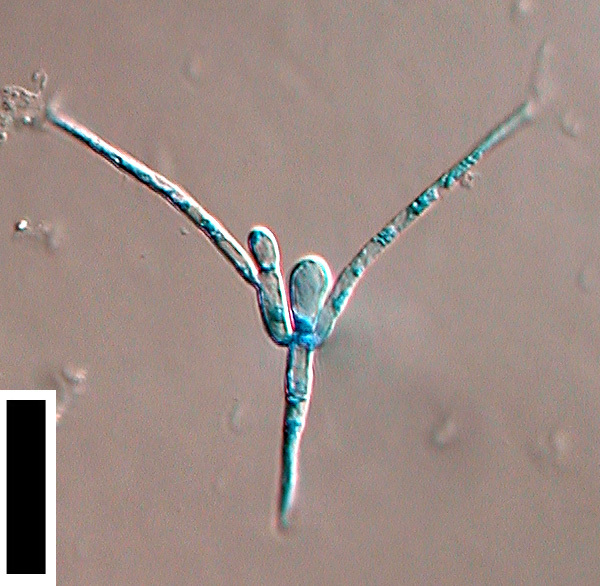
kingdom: Fungi
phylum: Ascomycota
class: Leotiomycetes
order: Helotiales
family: Helotiaceae
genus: Tetracladium
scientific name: Tetracladium marchalianum
